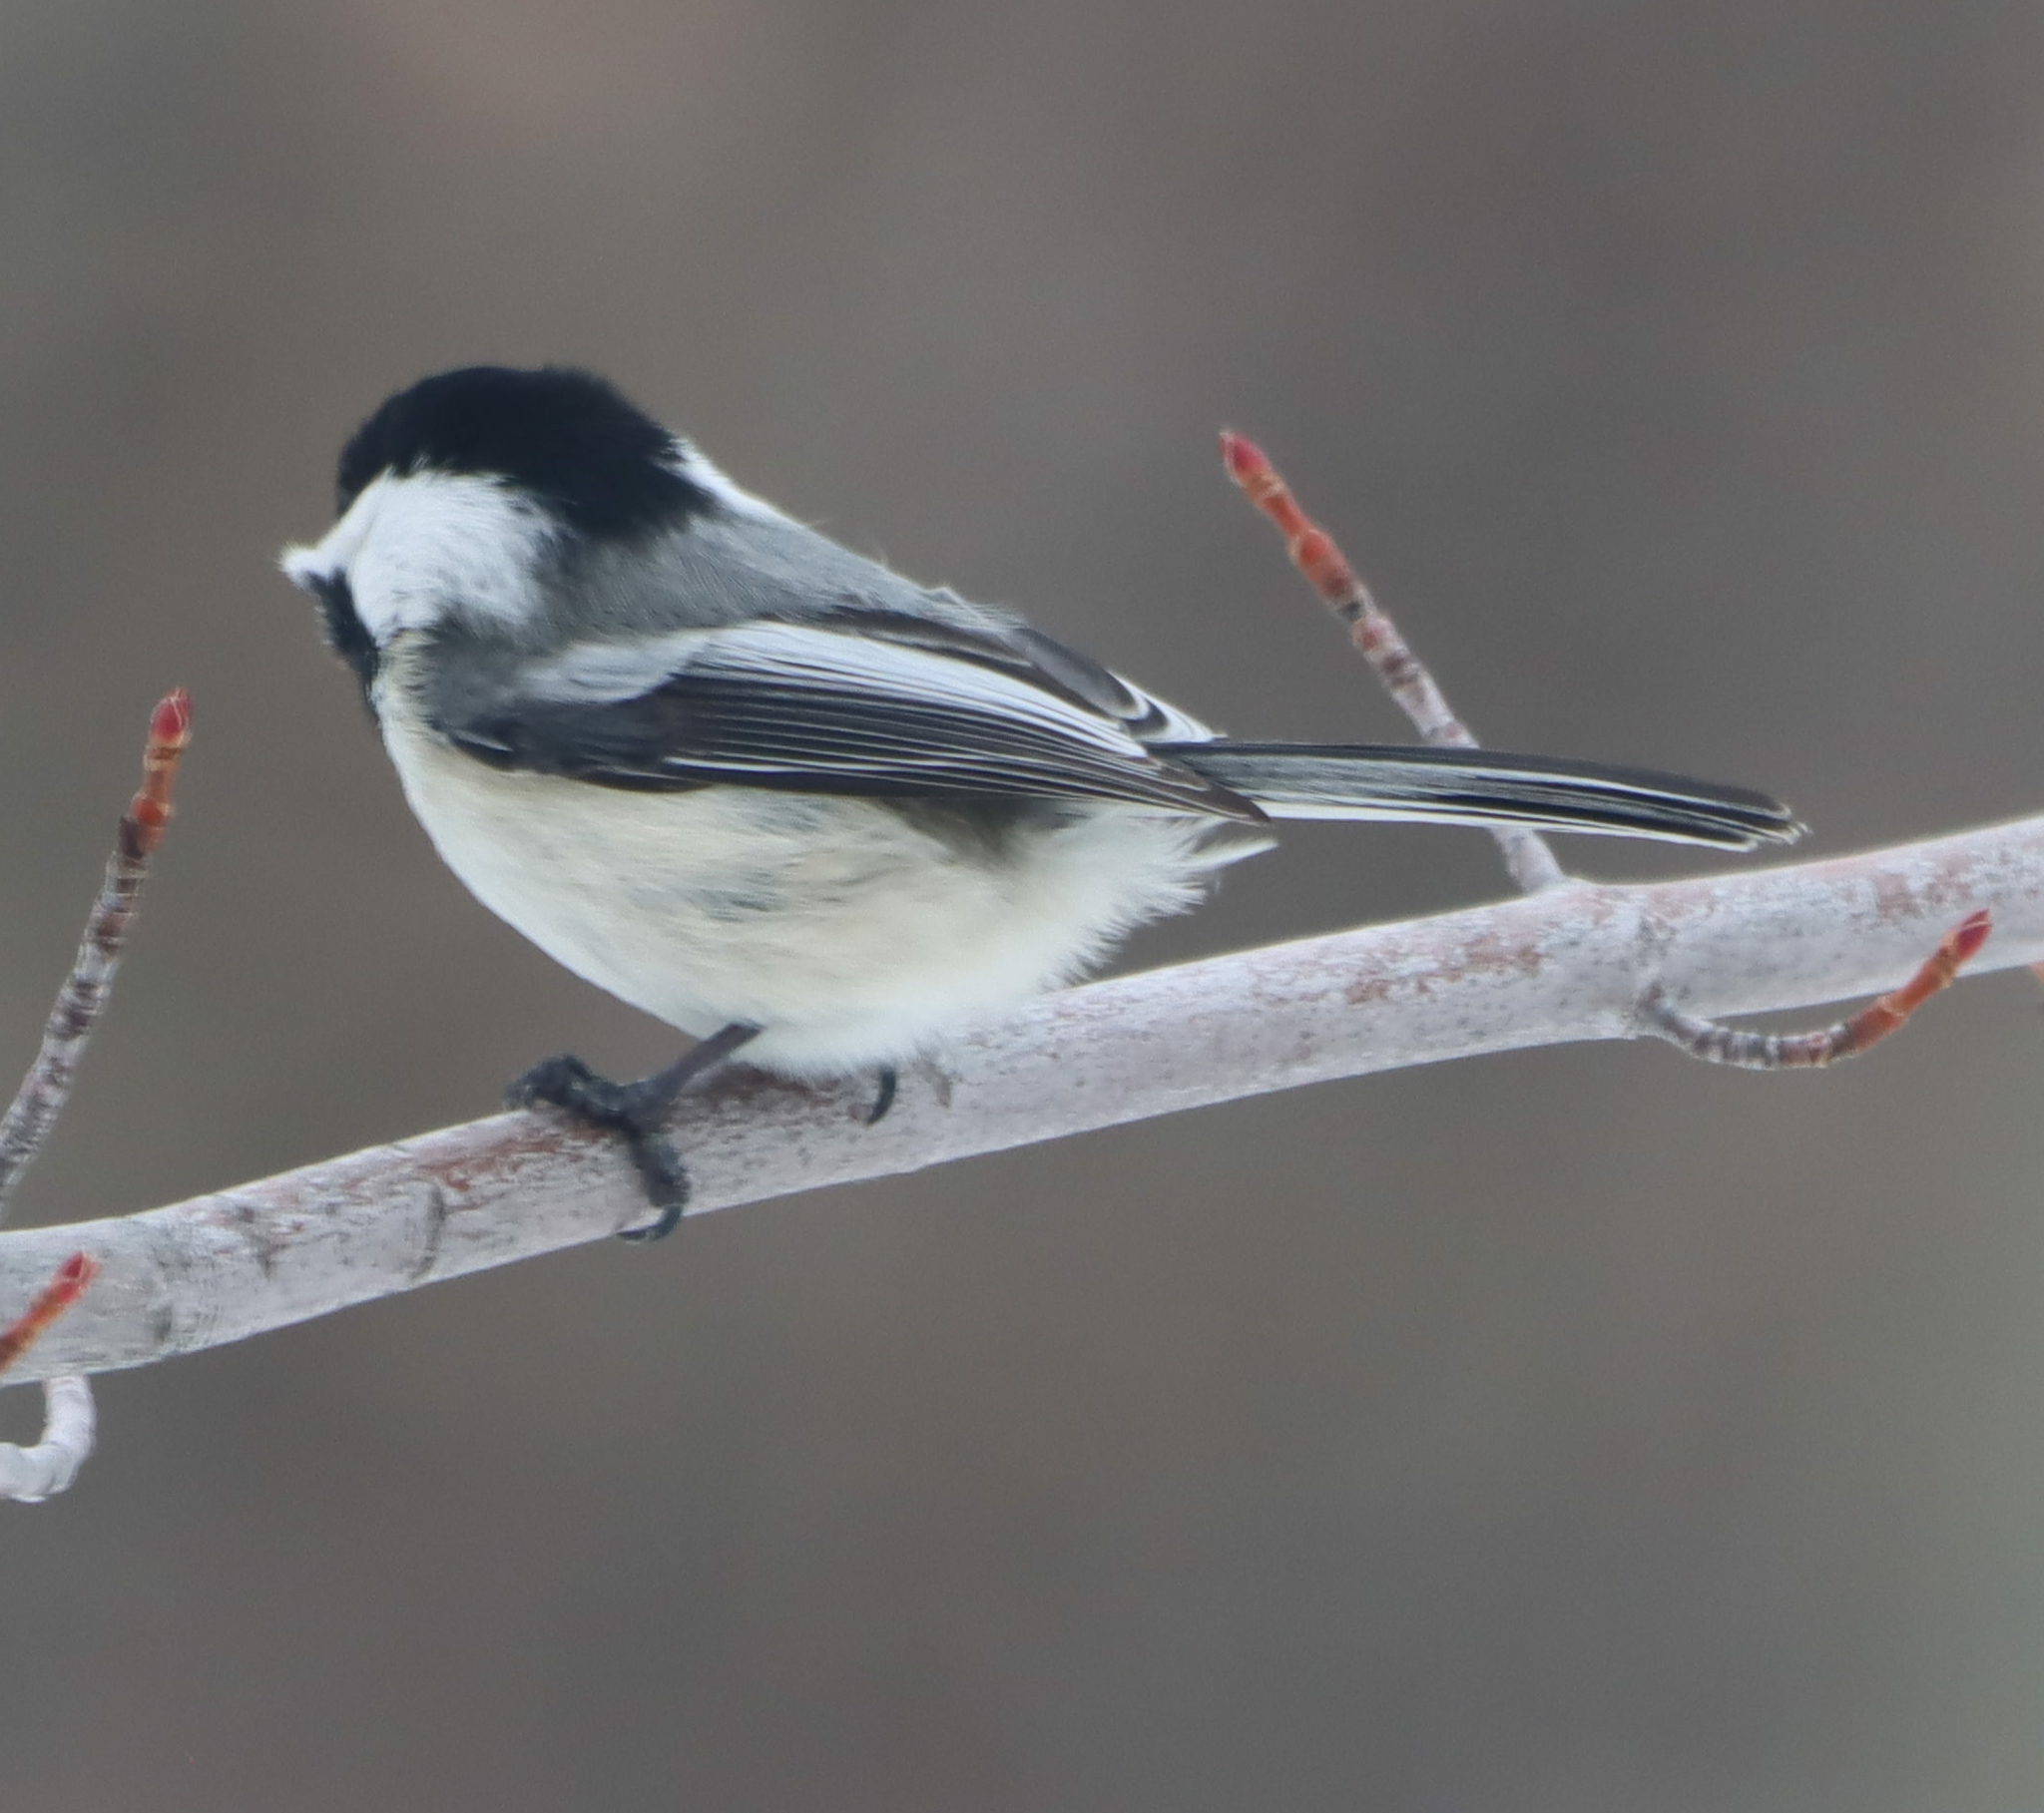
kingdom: Animalia
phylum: Chordata
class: Aves
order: Passeriformes
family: Paridae
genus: Poecile
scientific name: Poecile atricapillus
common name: Black-capped chickadee
